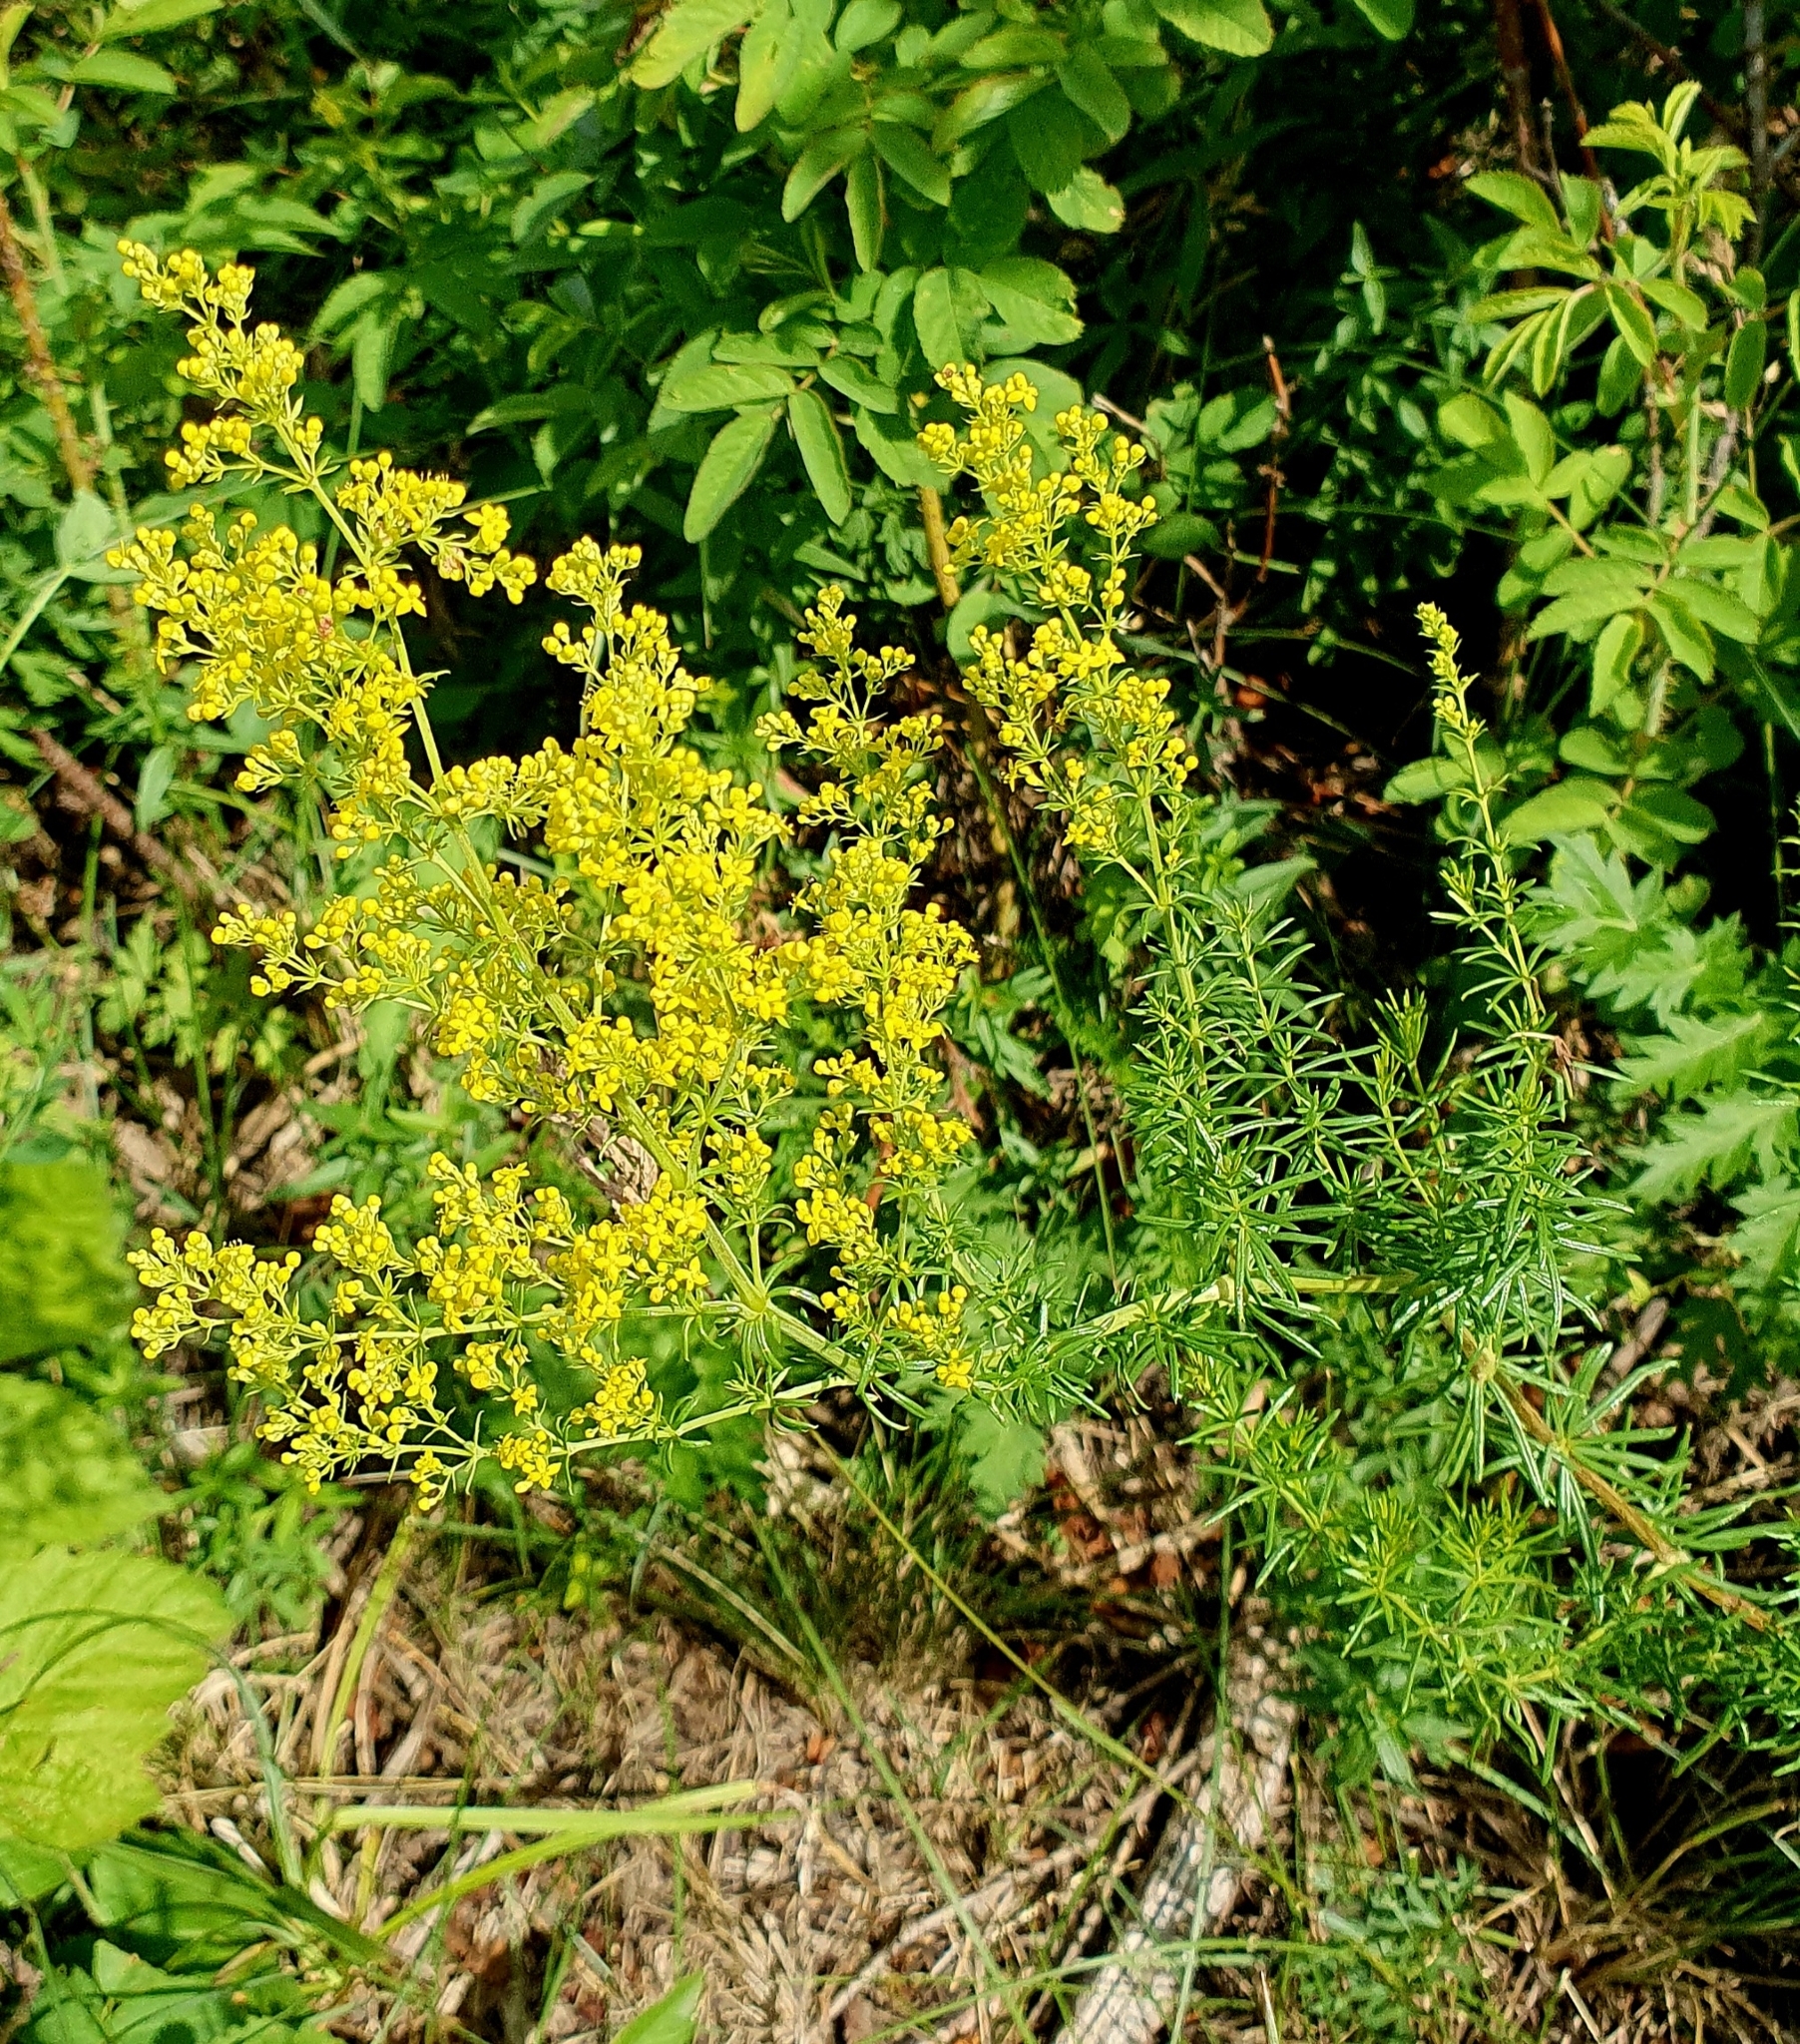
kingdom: Plantae
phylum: Tracheophyta
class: Magnoliopsida
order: Gentianales
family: Rubiaceae
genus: Galium
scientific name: Galium verum
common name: Lady's bedstraw
